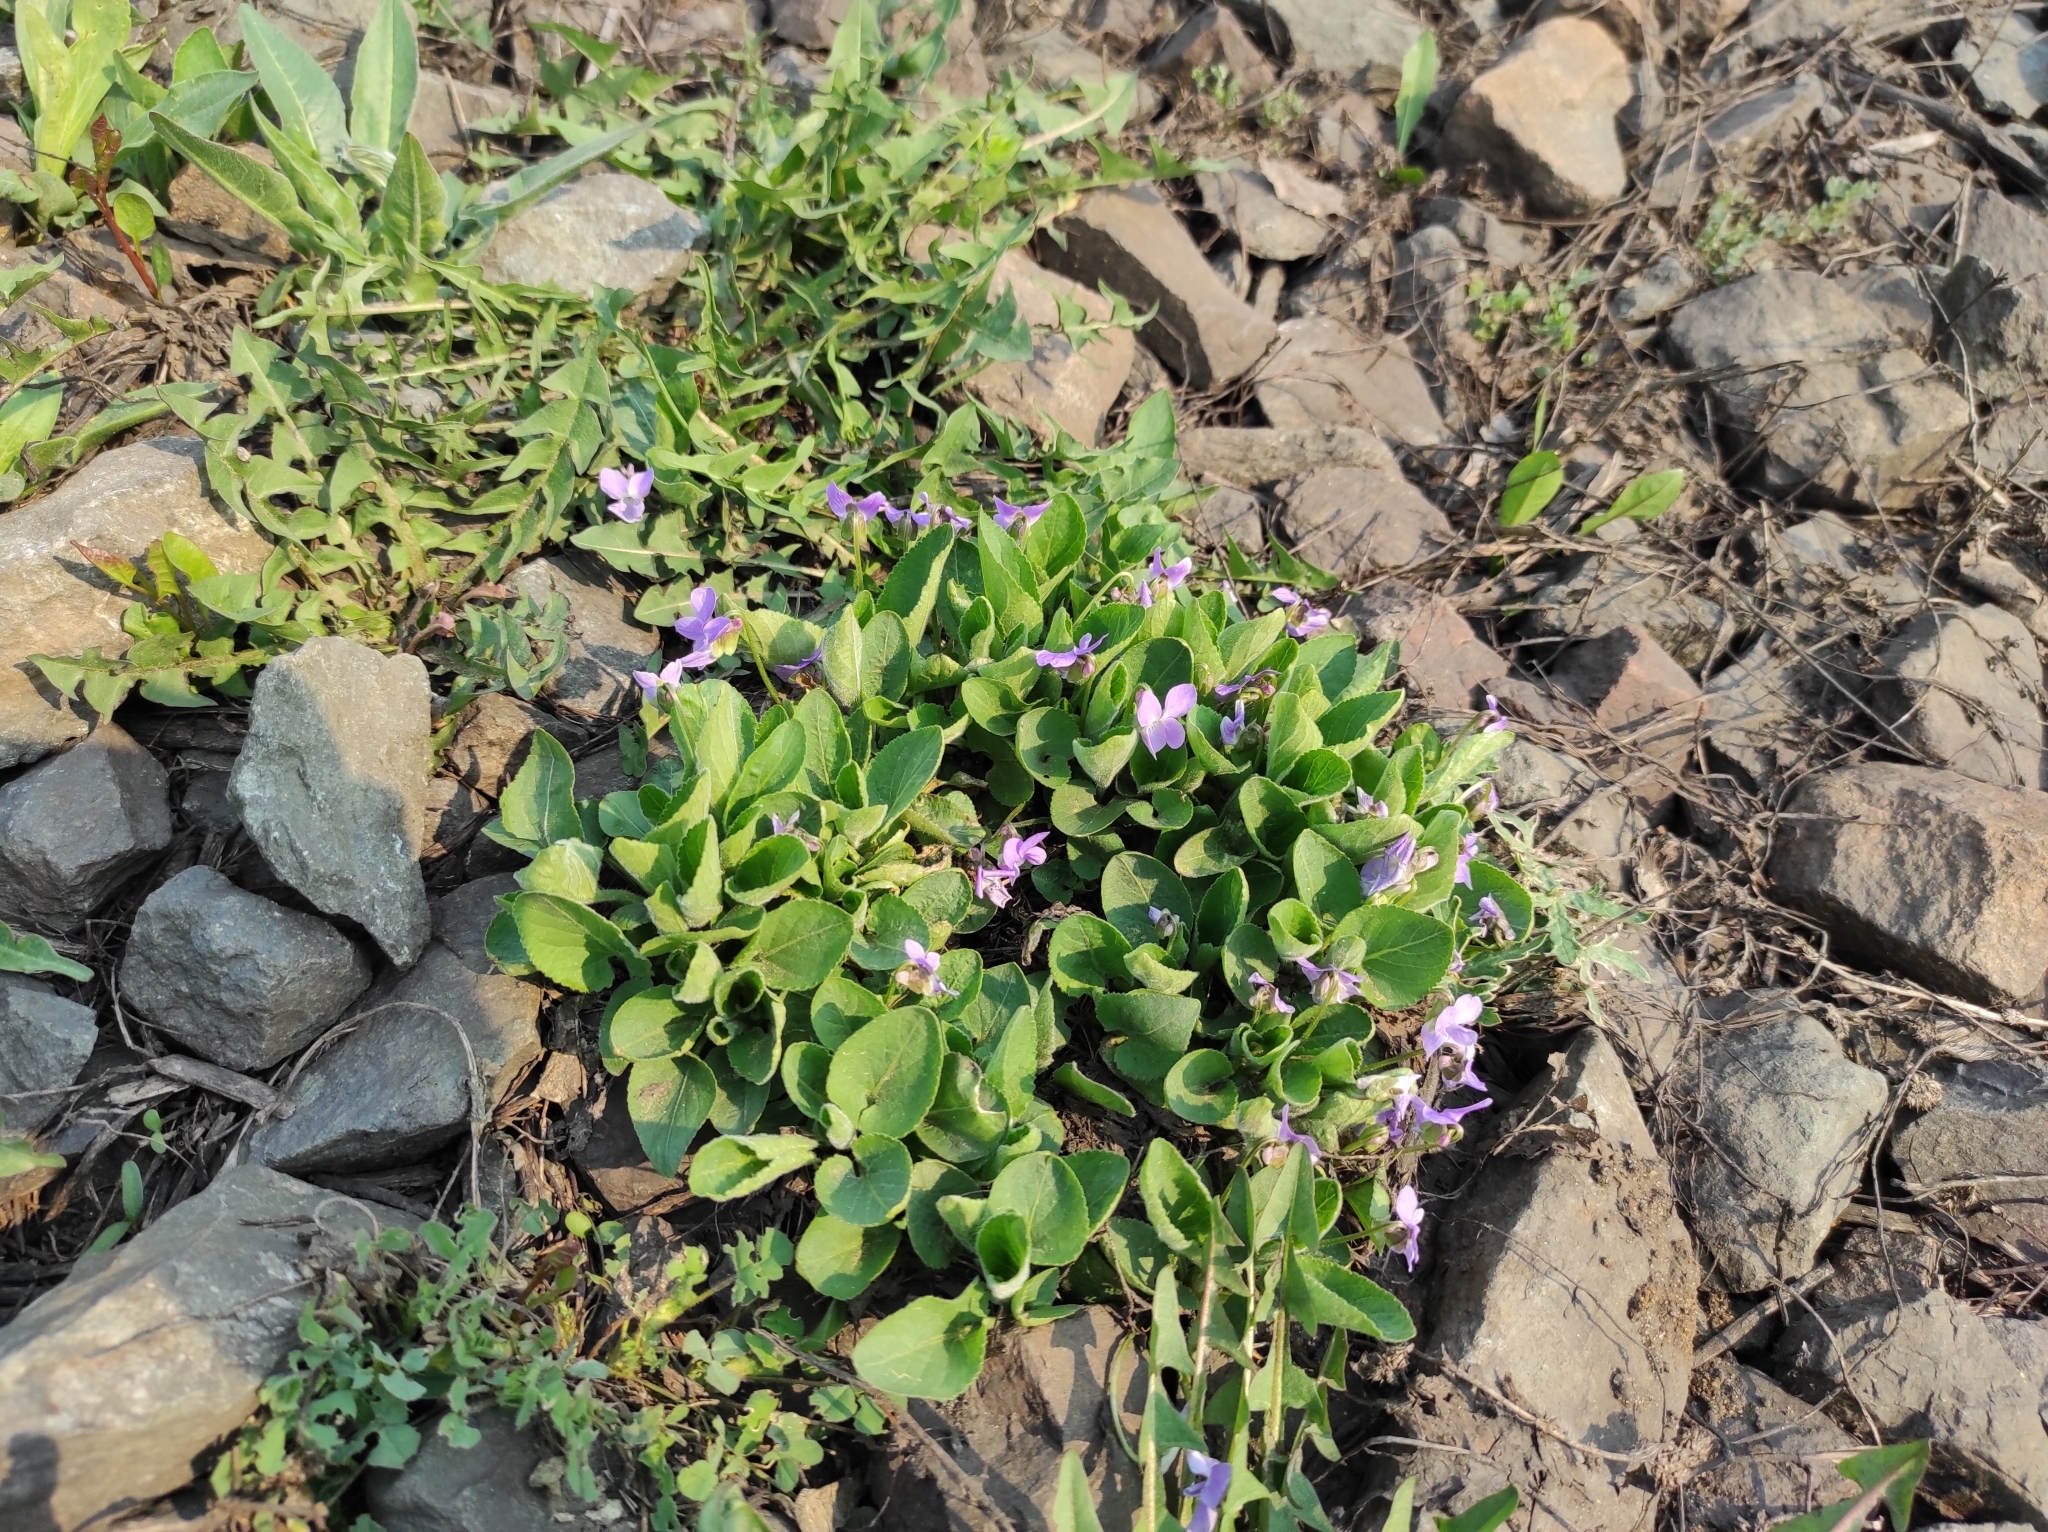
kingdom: Plantae
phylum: Tracheophyta
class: Magnoliopsida
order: Malpighiales
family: Violaceae
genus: Viola
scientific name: Viola hirta
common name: Hairy violet
